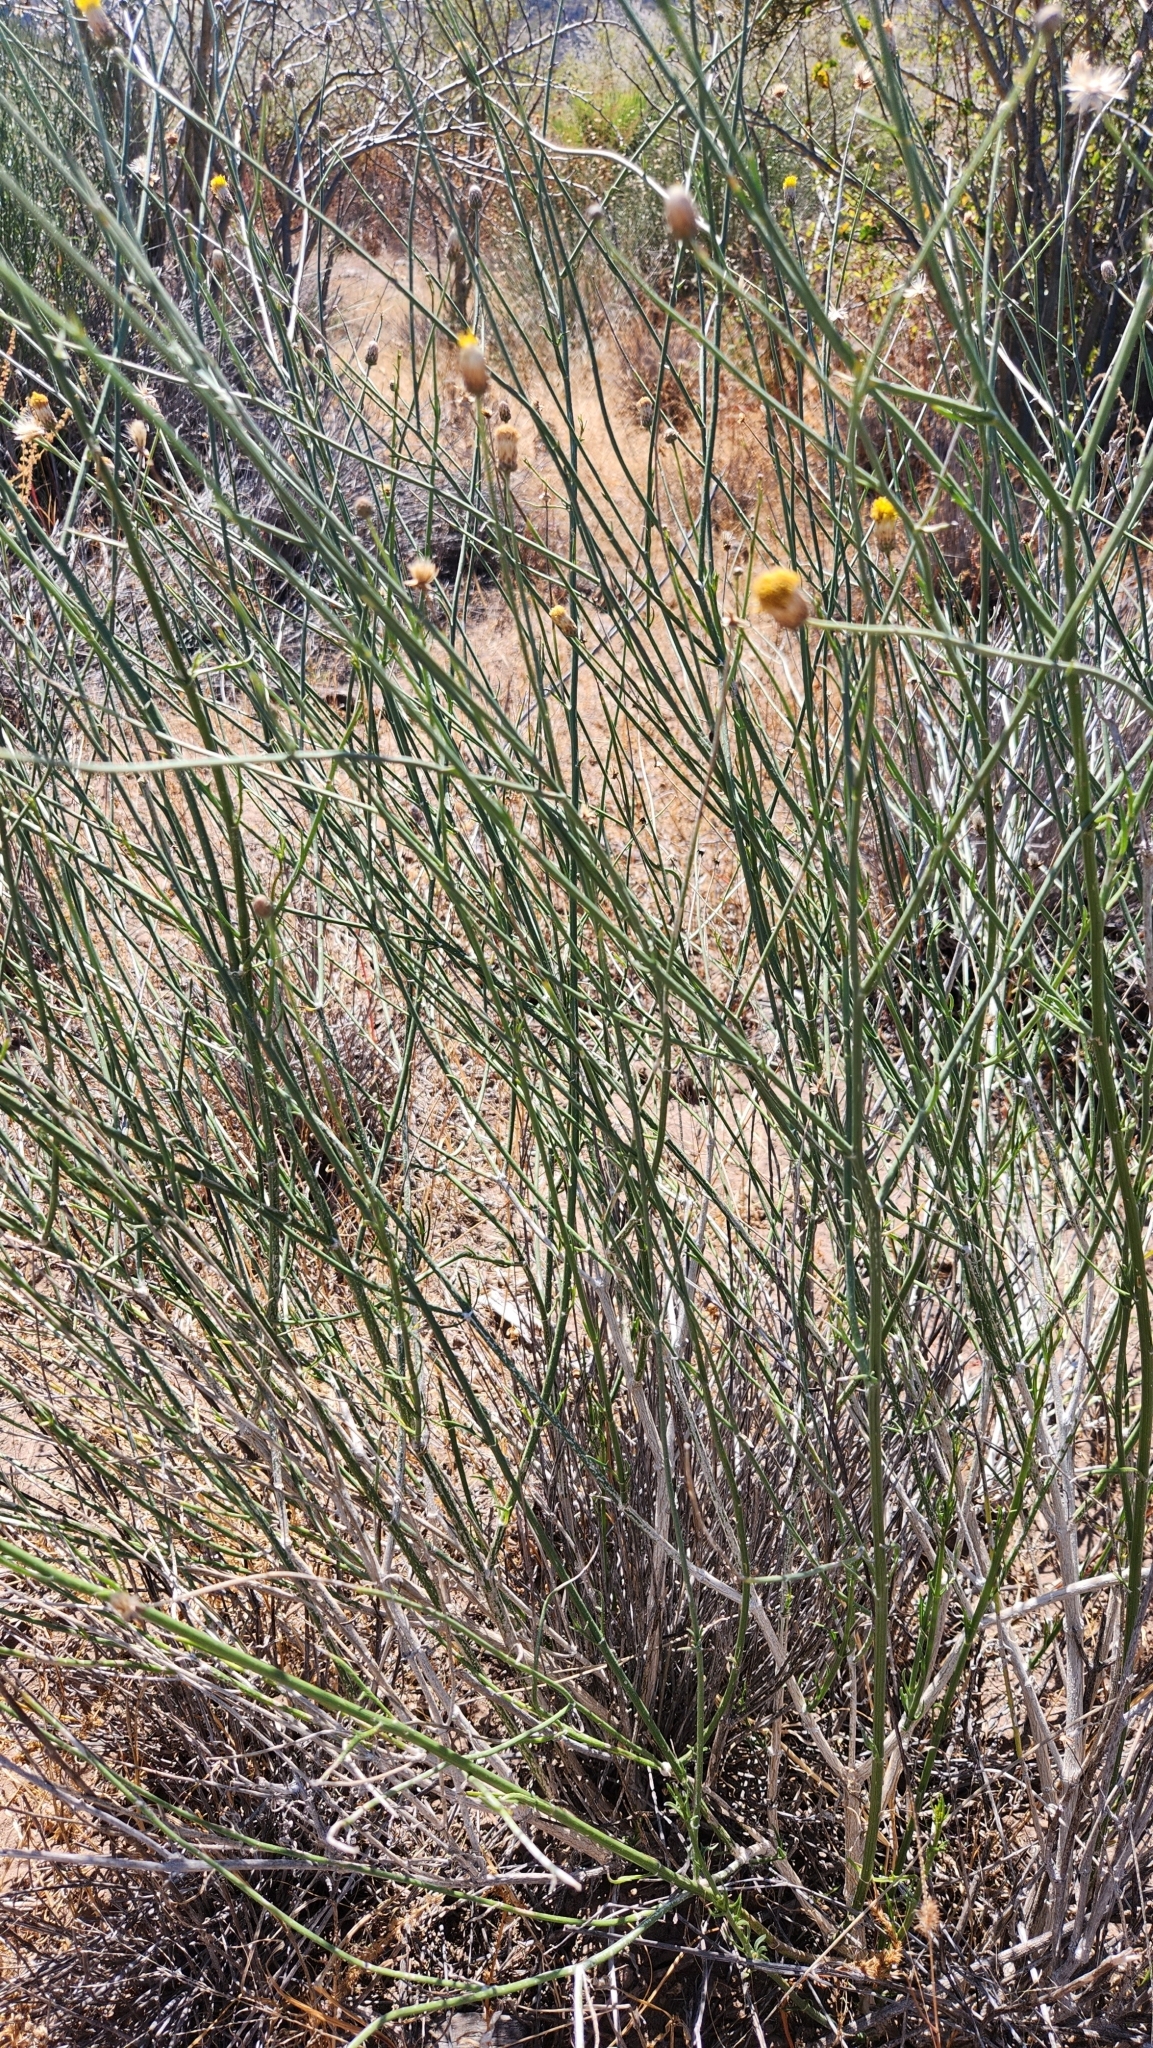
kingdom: Plantae
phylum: Tracheophyta
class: Magnoliopsida
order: Asterales
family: Asteraceae
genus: Bebbia
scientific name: Bebbia juncea
